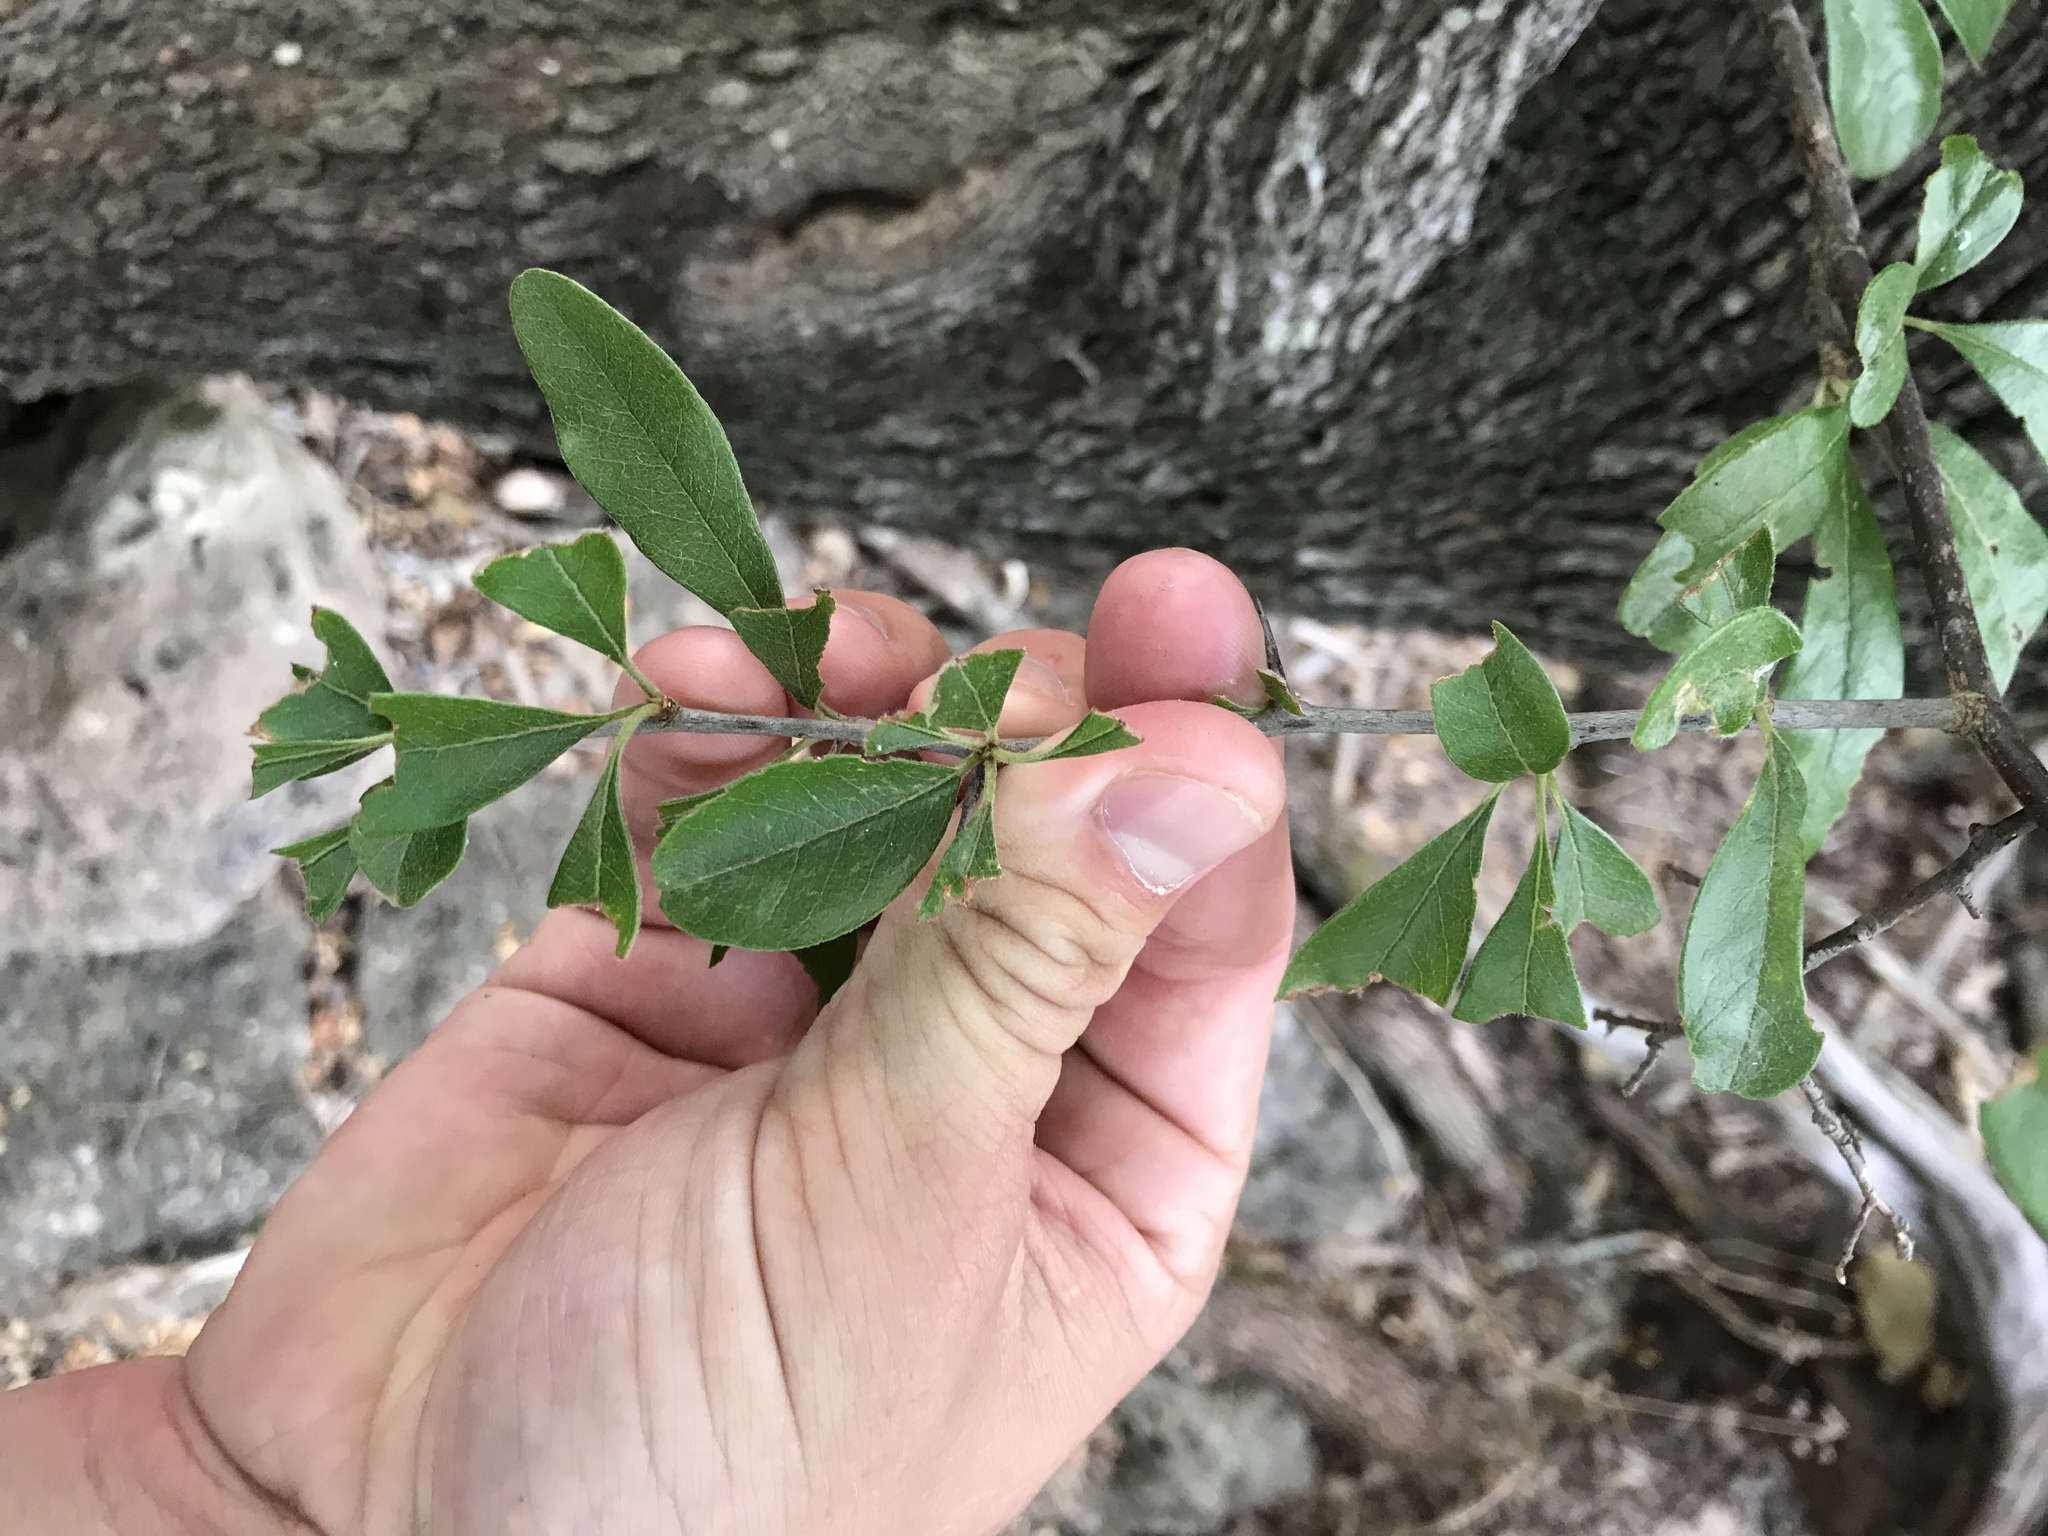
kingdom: Plantae
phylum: Tracheophyta
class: Magnoliopsida
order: Ericales
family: Sapotaceae
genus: Sideroxylon
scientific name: Sideroxylon lanuginosum
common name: Chittamwood
